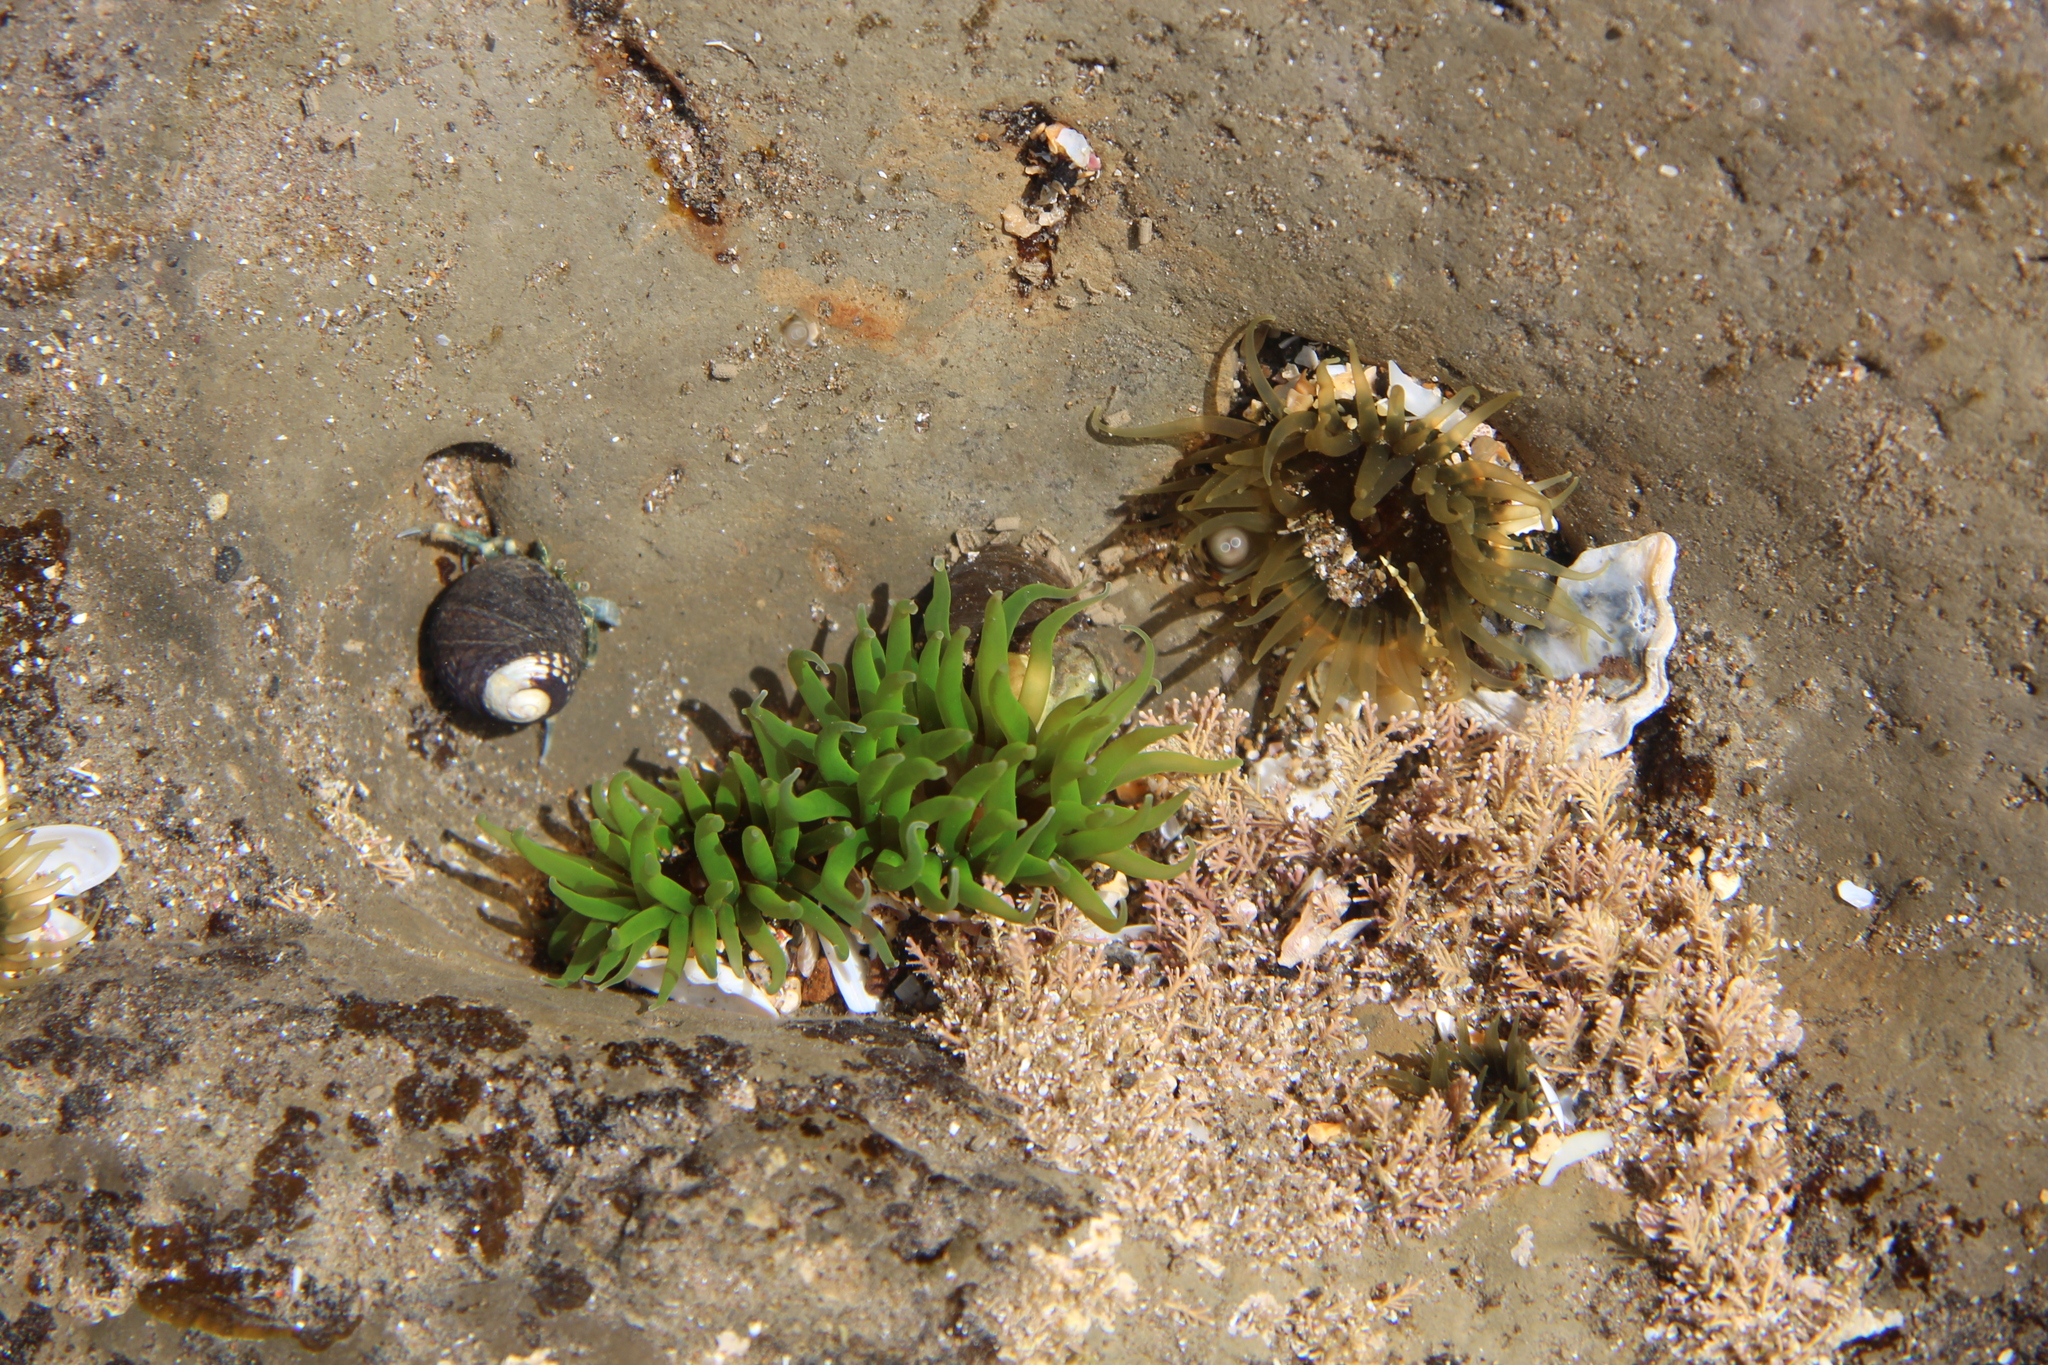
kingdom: Animalia
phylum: Cnidaria
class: Anthozoa
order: Actiniaria
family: Actiniidae
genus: Aulactinia
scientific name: Aulactinia veratra
